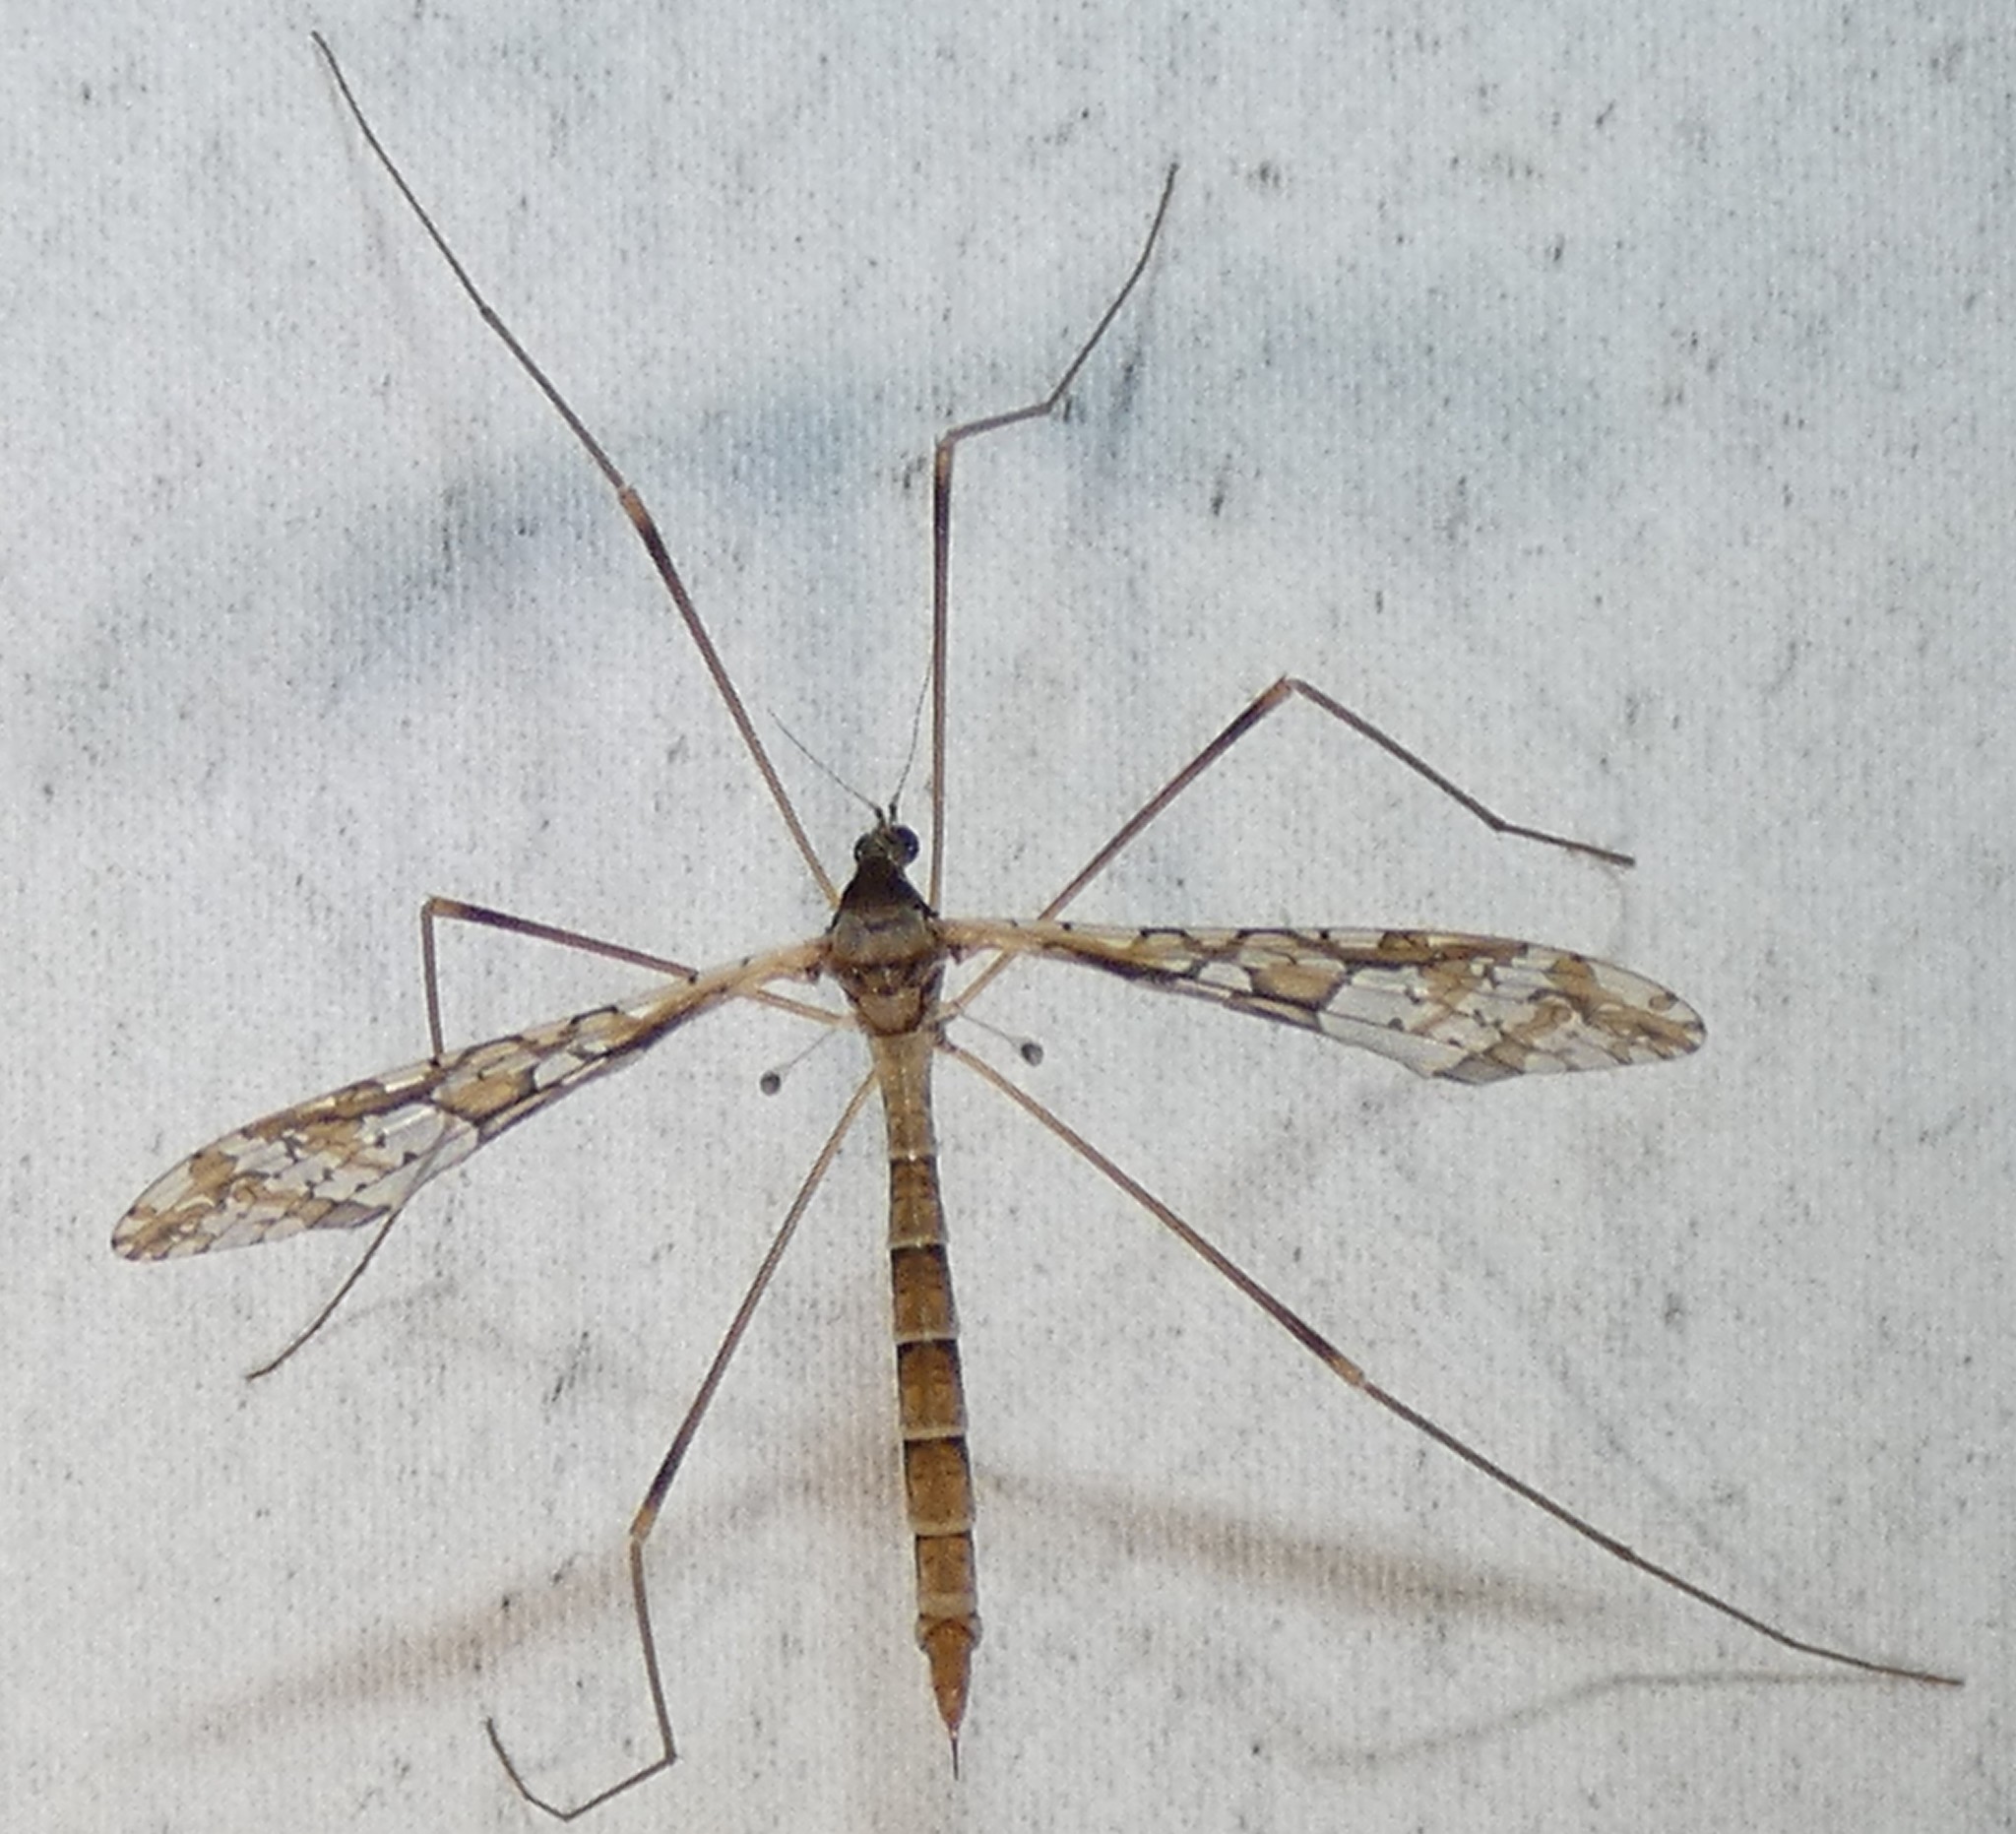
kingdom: Animalia
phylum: Arthropoda
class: Insecta
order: Diptera
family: Limoniidae
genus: Epiphragma
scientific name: Epiphragma solatrix
